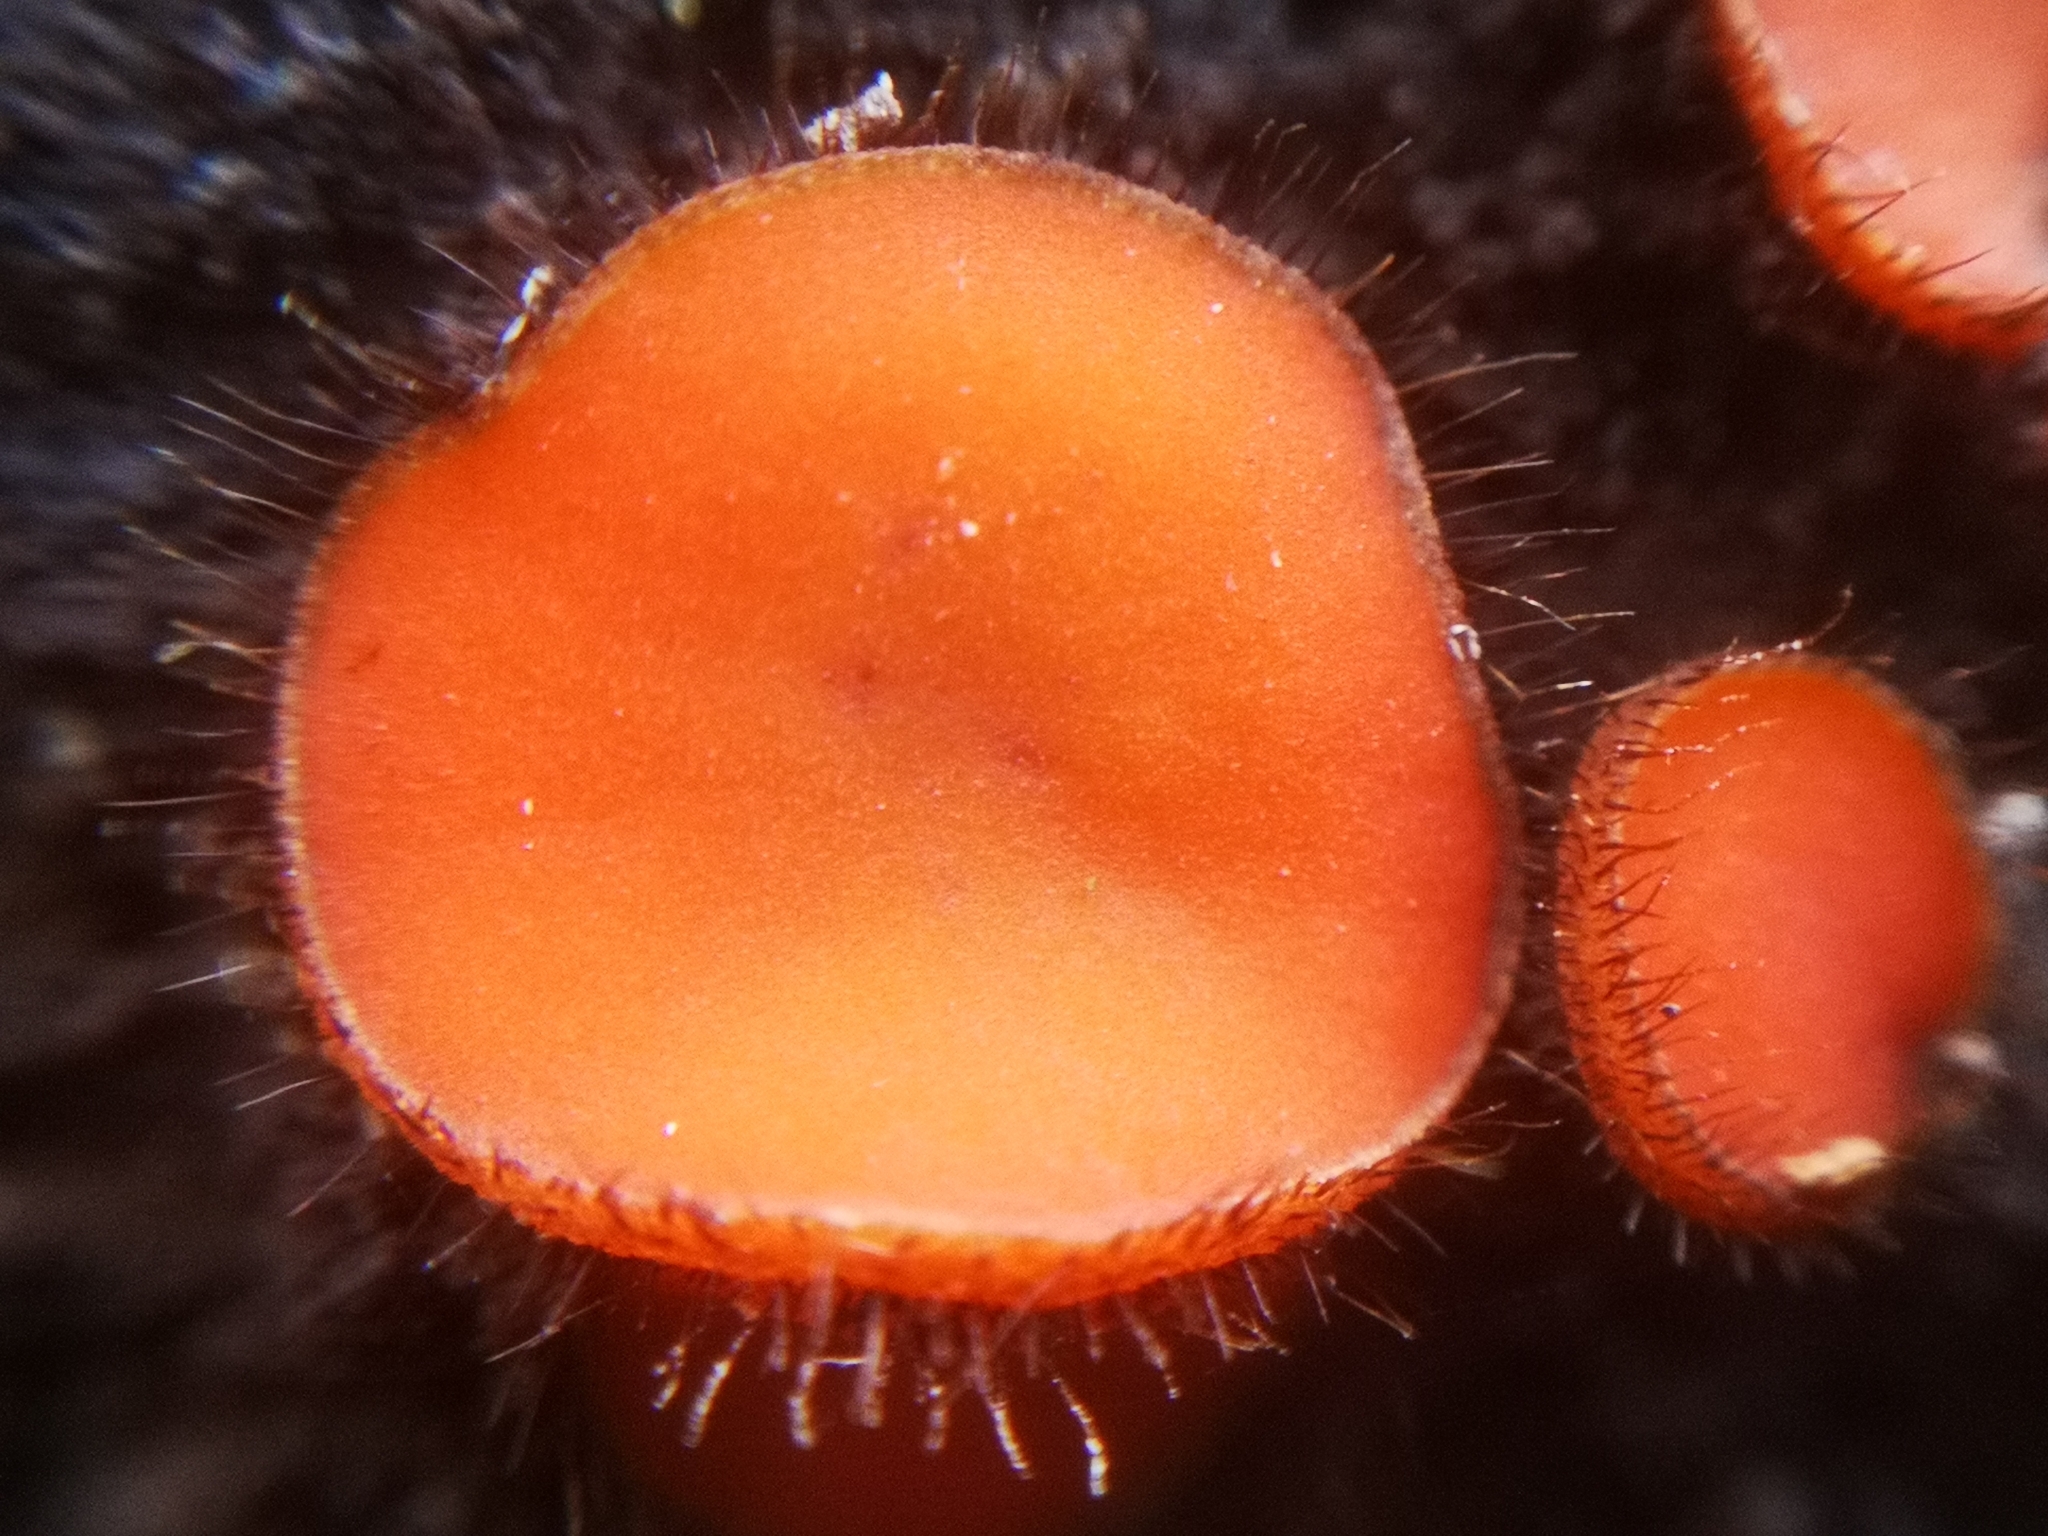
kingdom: Fungi
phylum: Ascomycota
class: Pezizomycetes
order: Pezizales
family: Pyronemataceae
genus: Scutellinia
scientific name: Scutellinia
